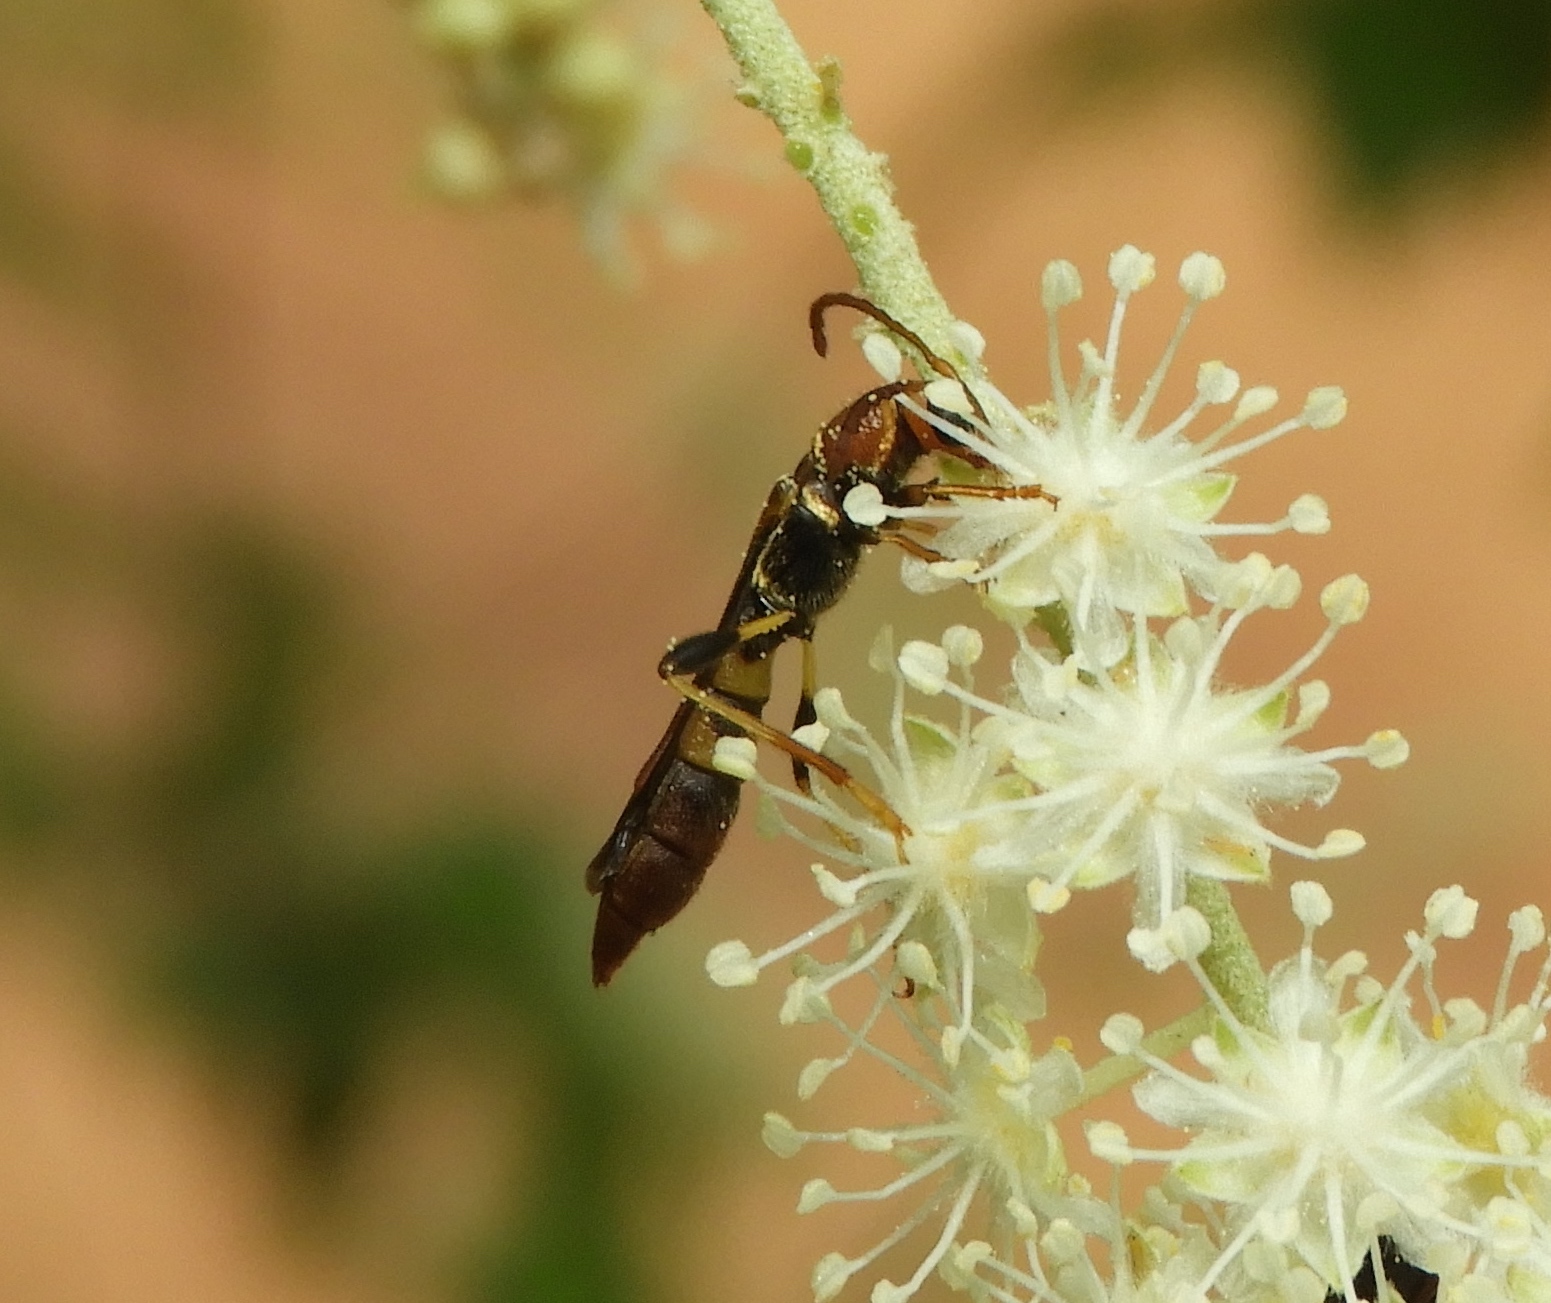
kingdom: Animalia
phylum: Arthropoda
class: Insecta
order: Coleoptera
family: Cerambycidae
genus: Odontocera
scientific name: Odontocera aurocincta
